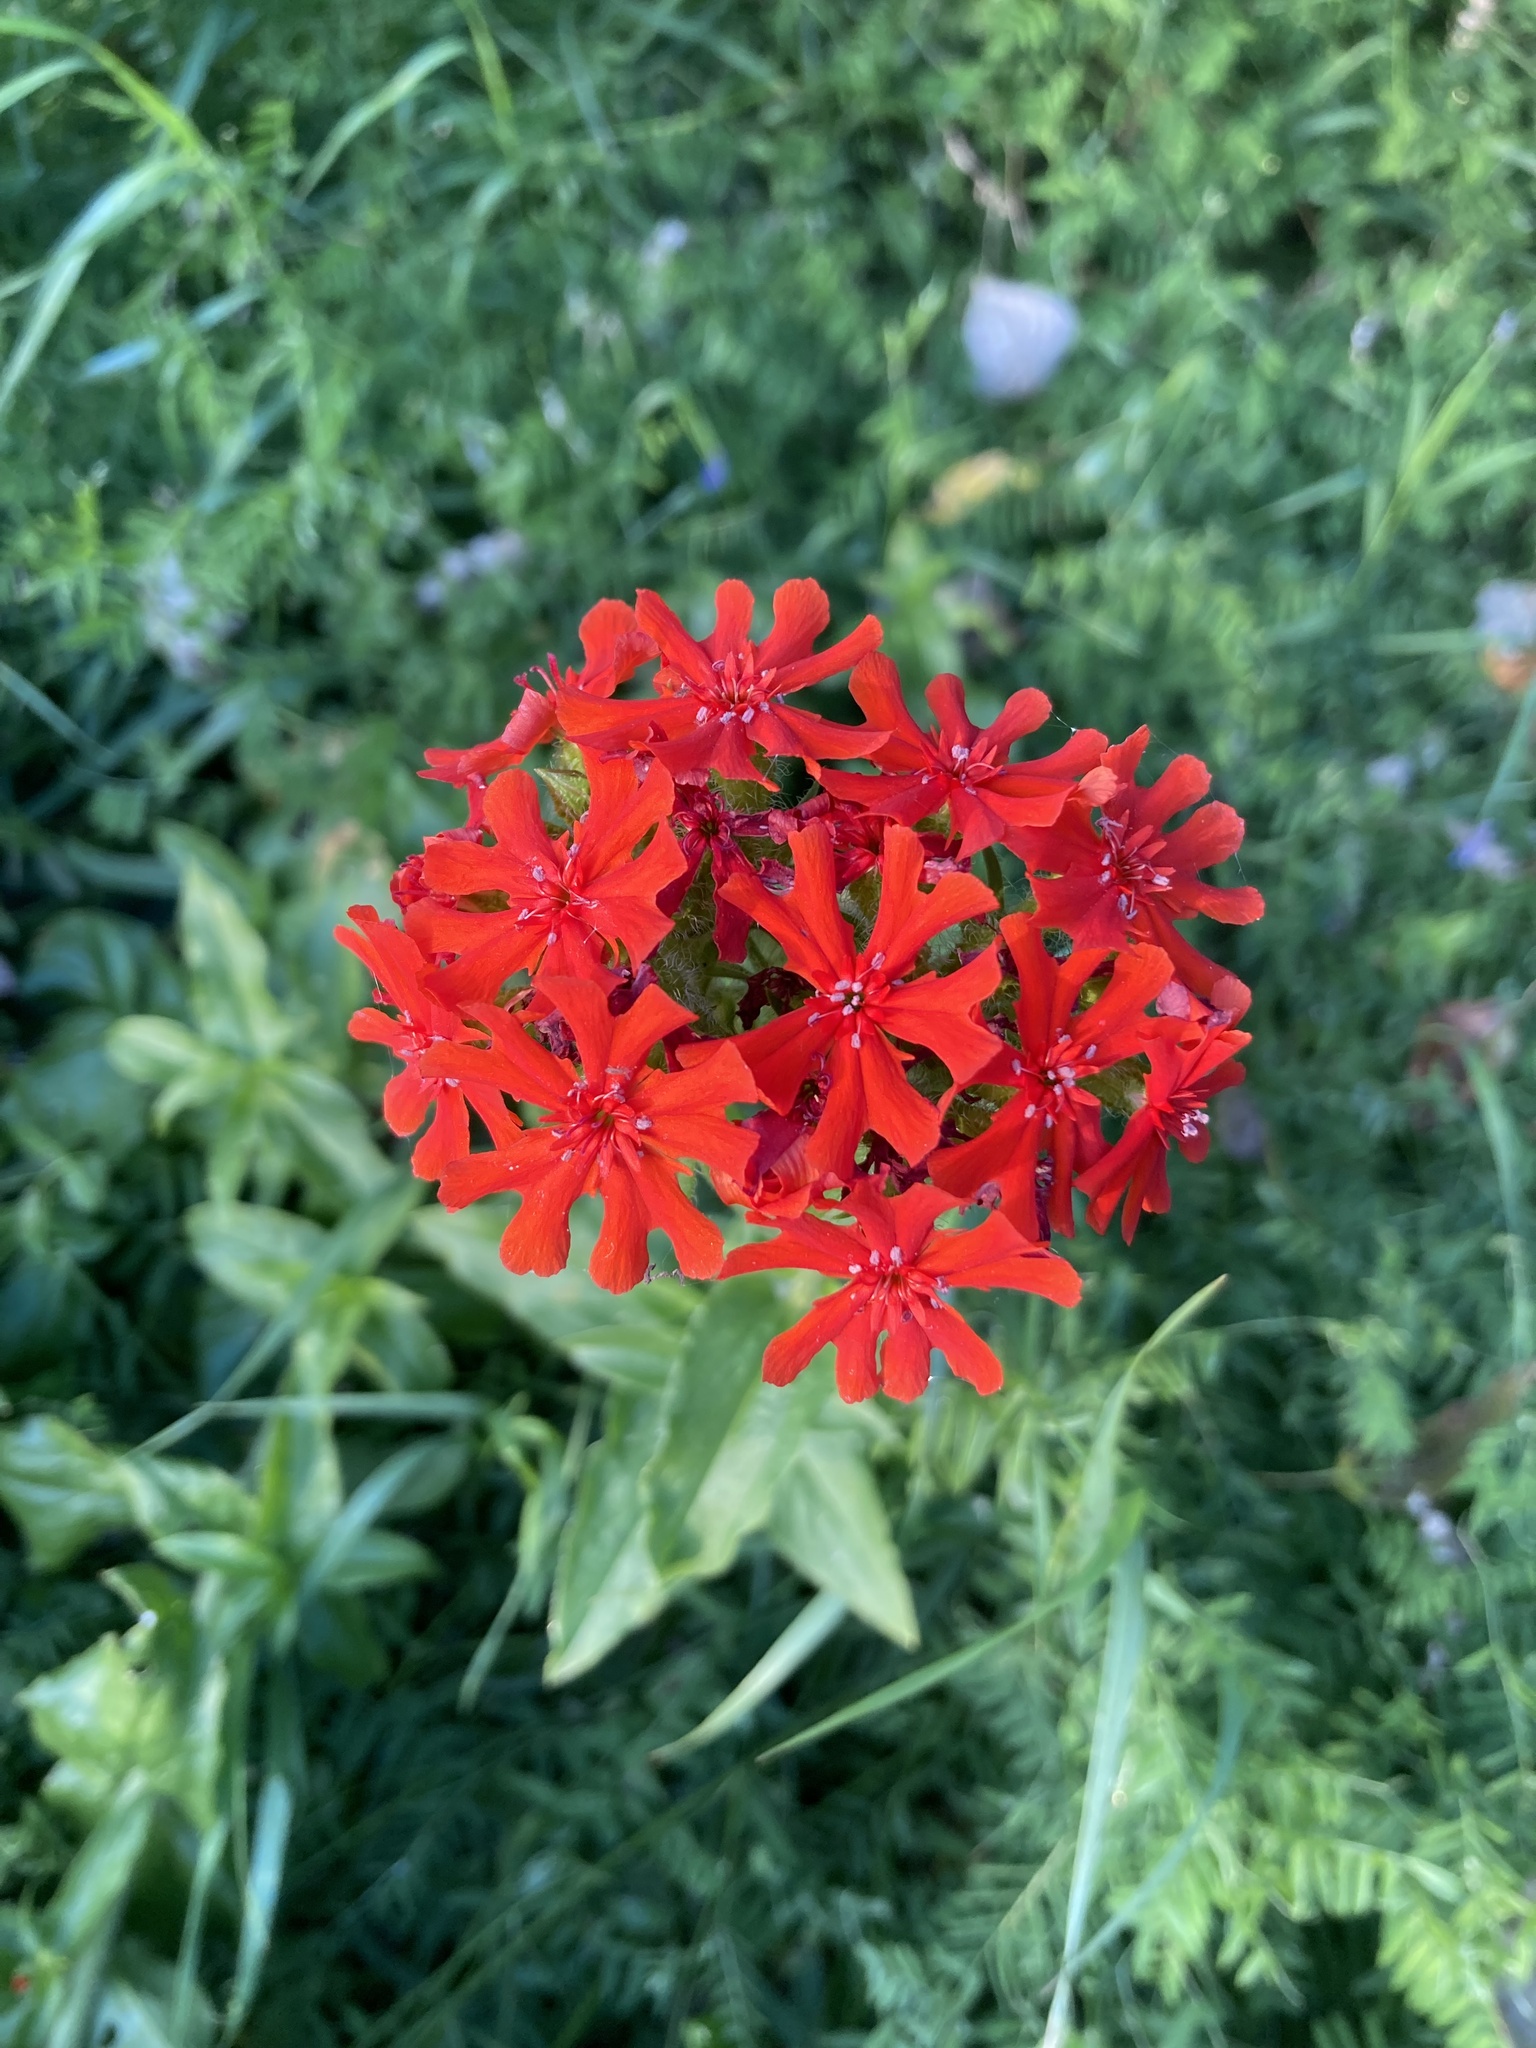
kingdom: Plantae
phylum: Tracheophyta
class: Magnoliopsida
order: Caryophyllales
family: Caryophyllaceae
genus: Silene
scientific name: Silene chalcedonica
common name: Maltese-cross
